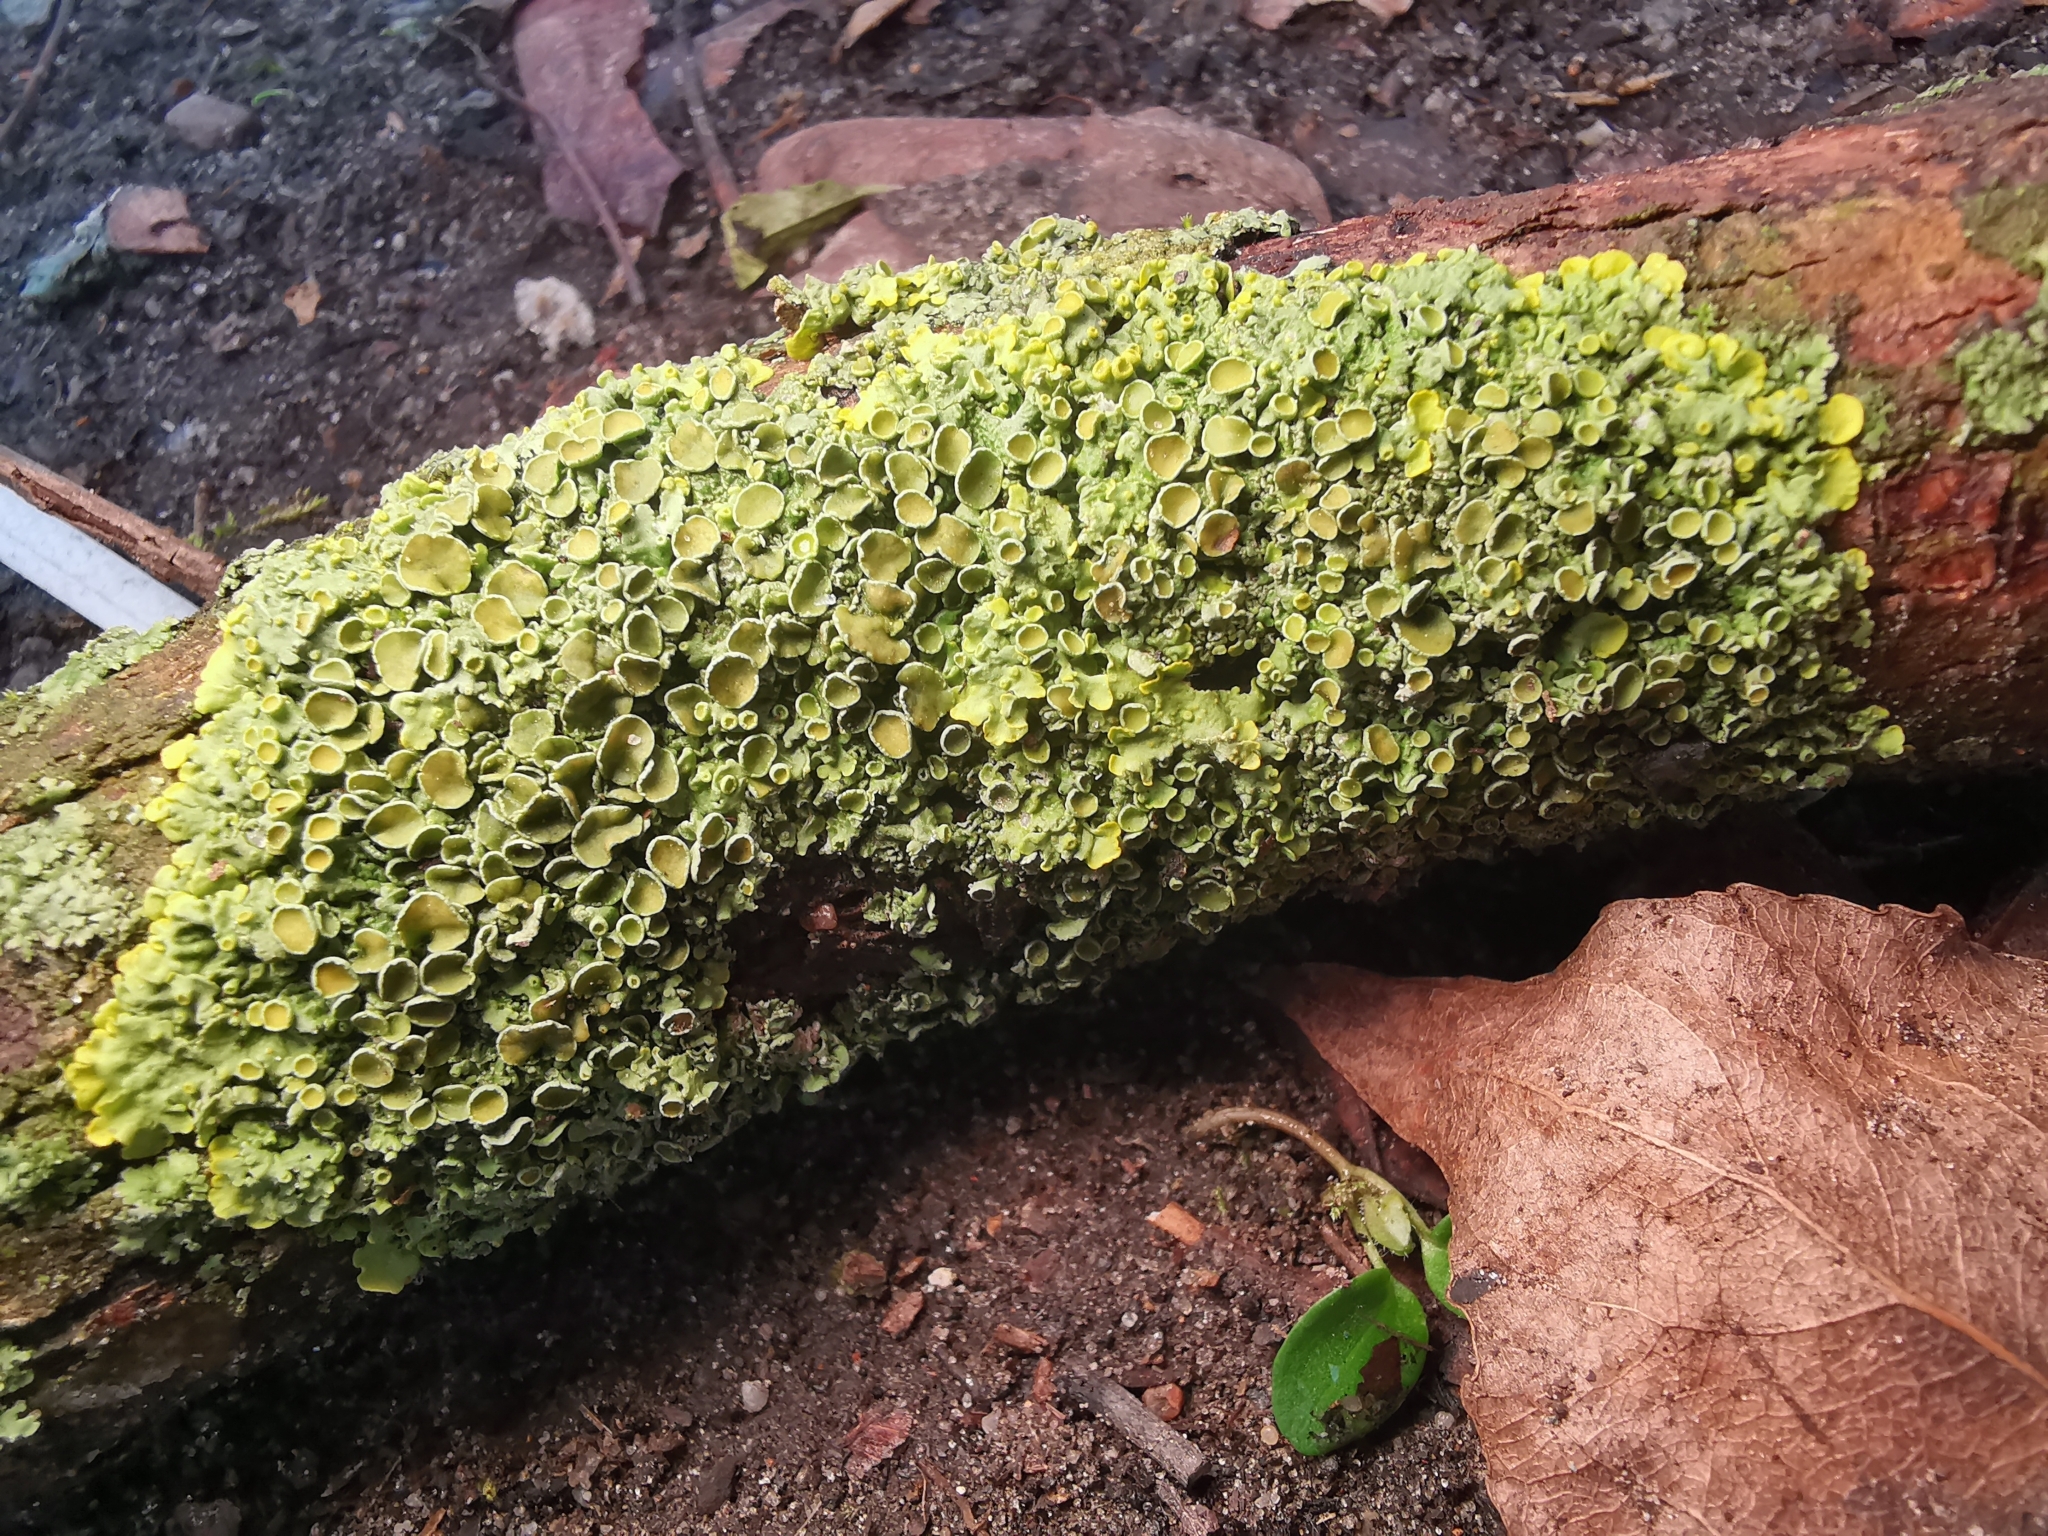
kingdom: Fungi
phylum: Ascomycota
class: Lecanoromycetes
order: Teloschistales
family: Teloschistaceae
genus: Xanthoria
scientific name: Xanthoria parietina
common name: Common orange lichen
